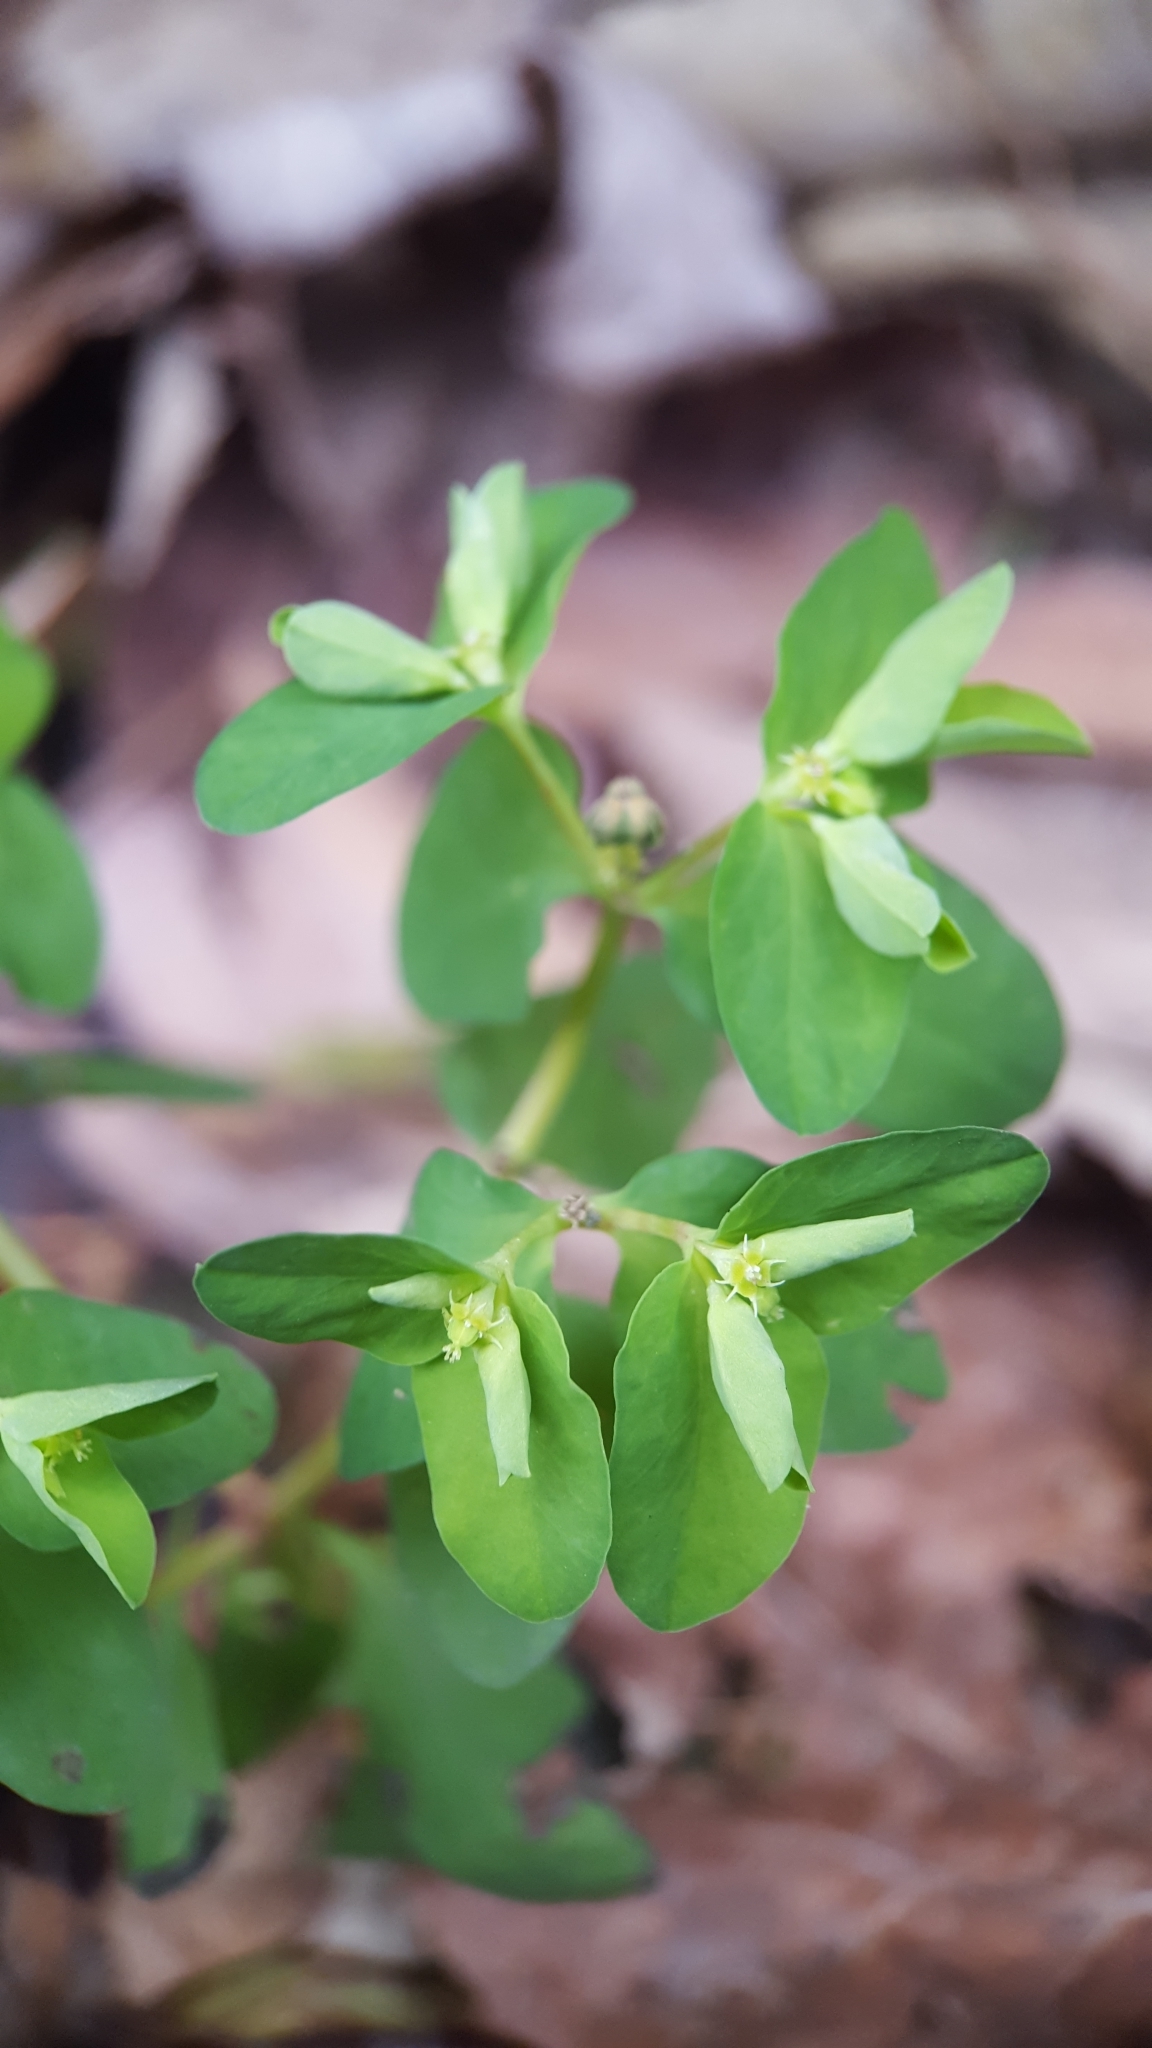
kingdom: Plantae
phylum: Tracheophyta
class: Magnoliopsida
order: Malpighiales
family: Euphorbiaceae
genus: Euphorbia
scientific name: Euphorbia peplus
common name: Petty spurge
